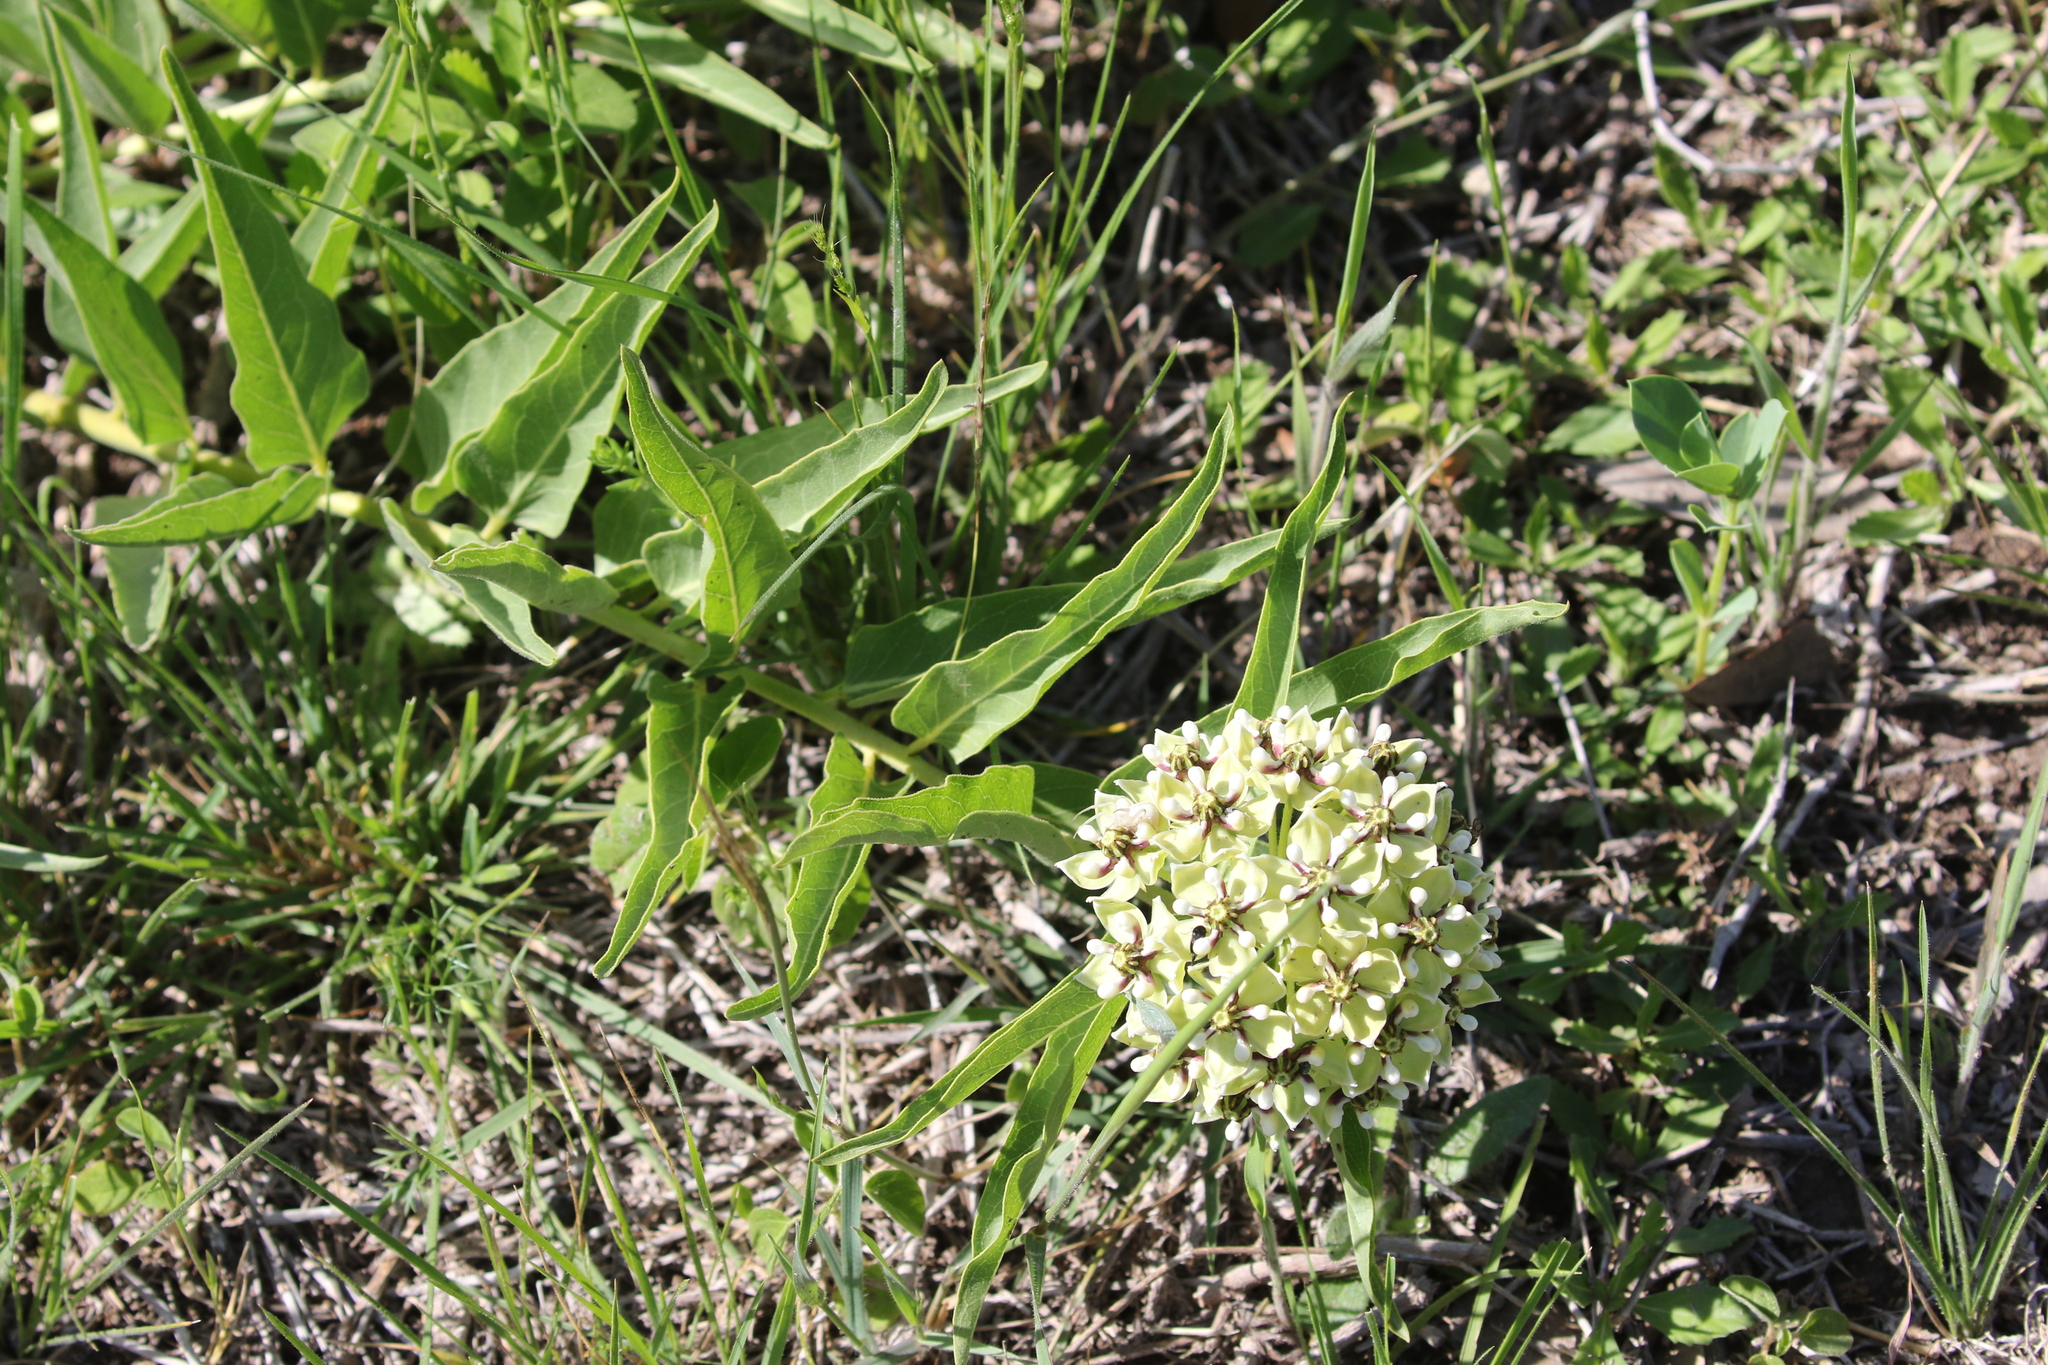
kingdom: Plantae
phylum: Tracheophyta
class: Magnoliopsida
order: Gentianales
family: Apocynaceae
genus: Asclepias
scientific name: Asclepias asperula
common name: Antelope horns
